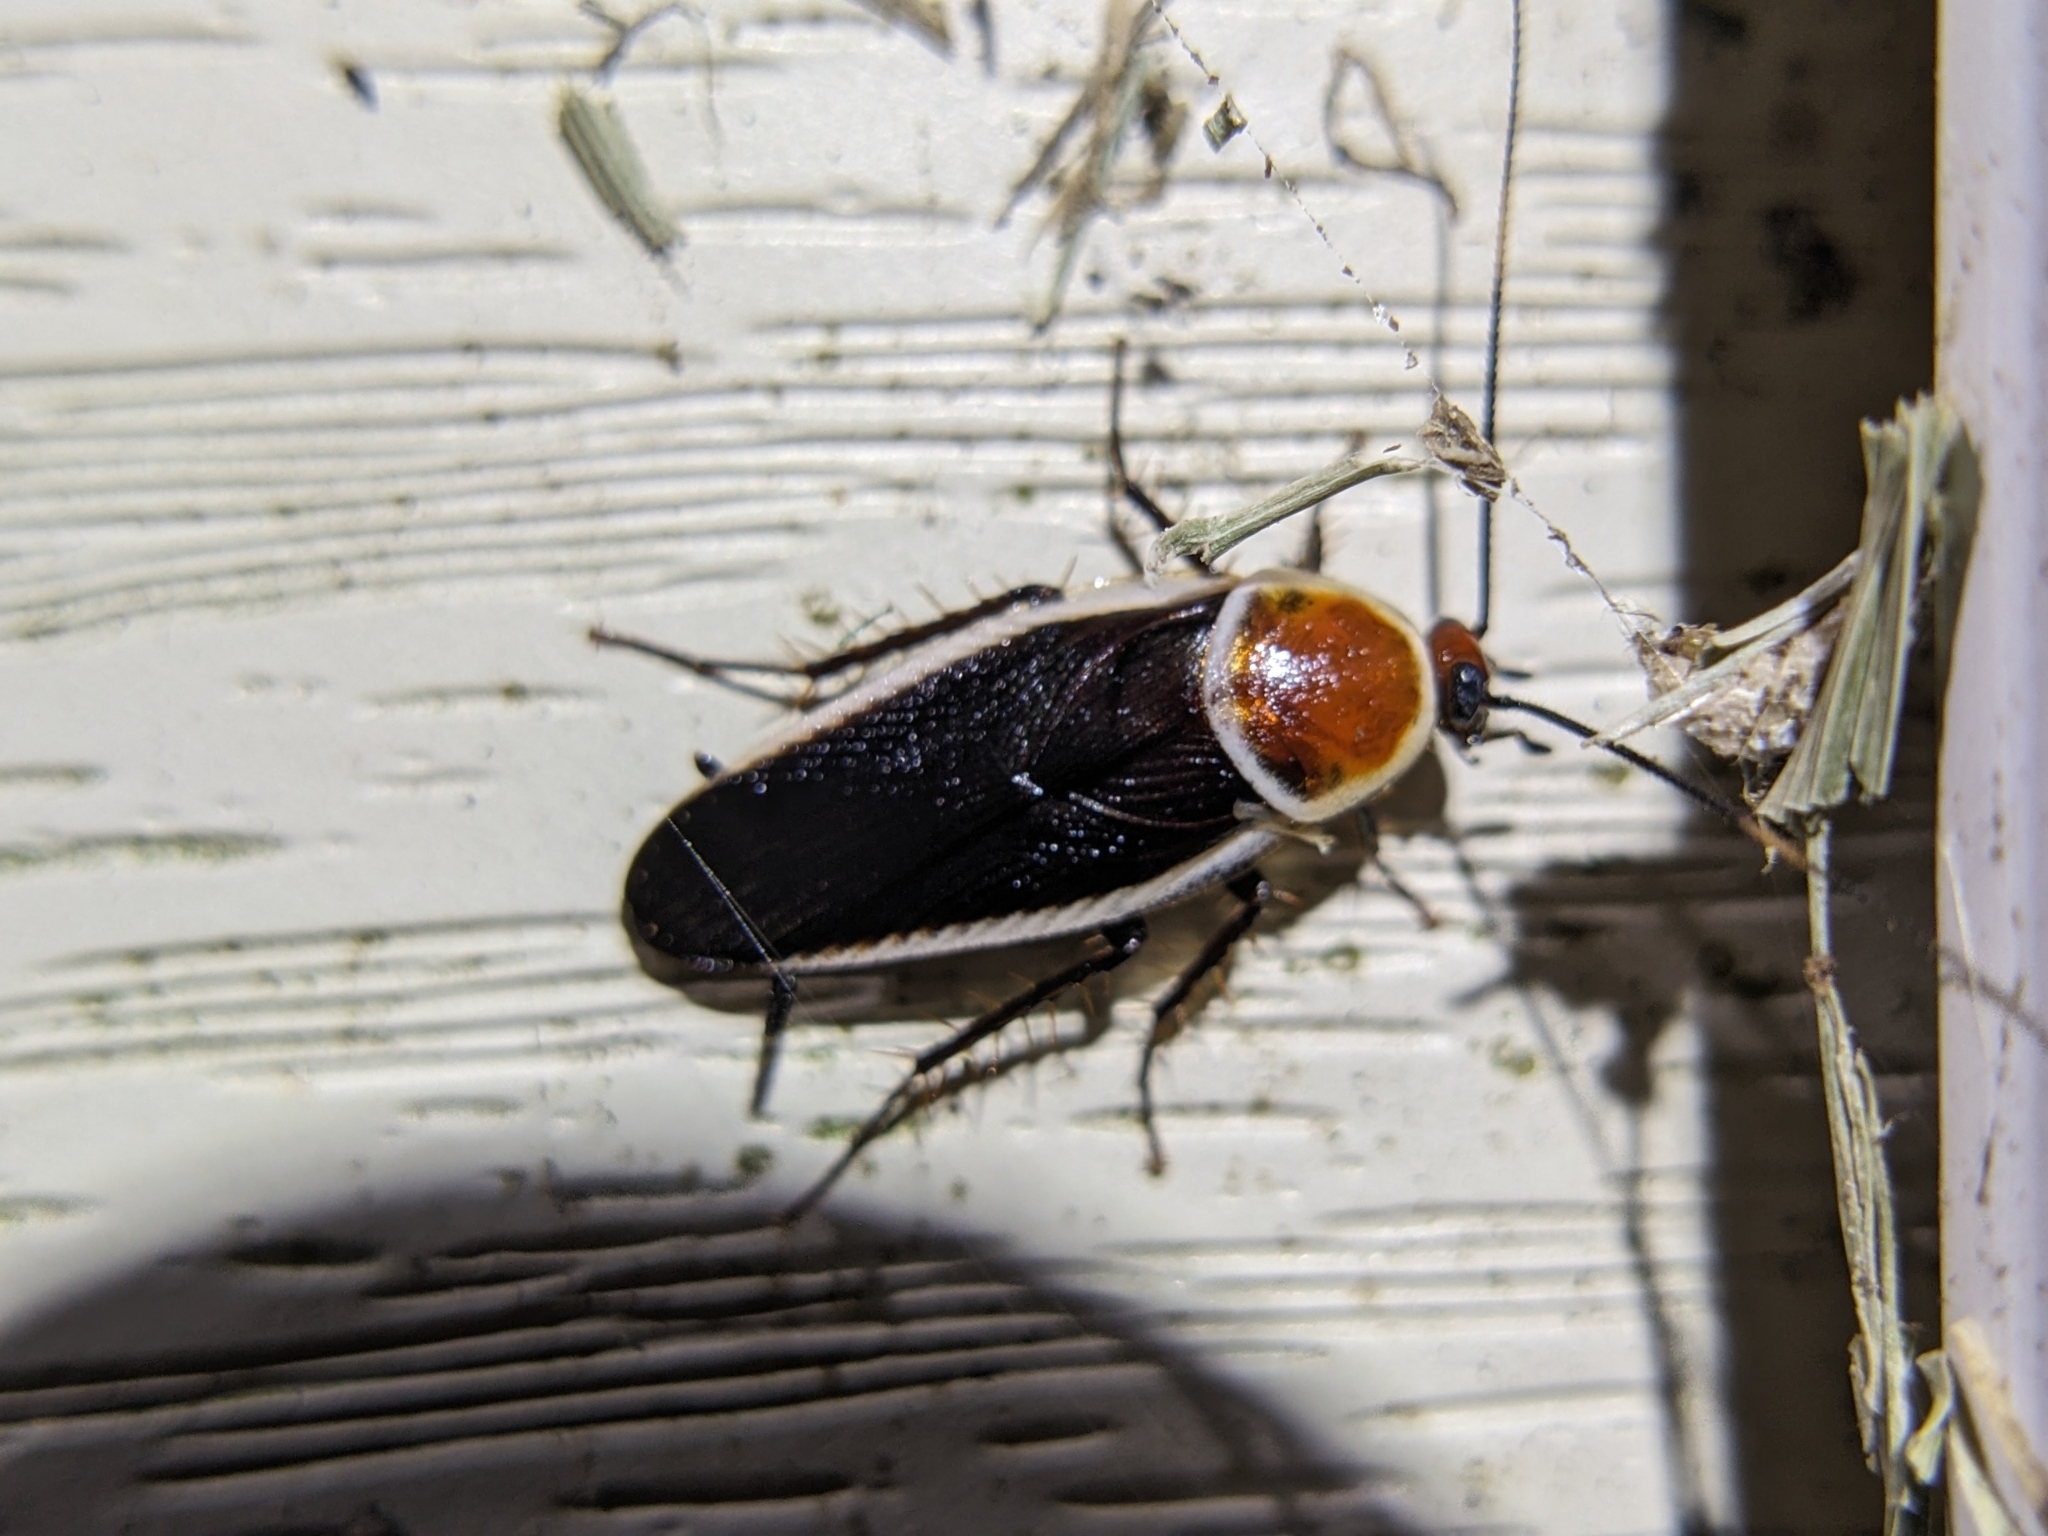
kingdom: Animalia
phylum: Arthropoda
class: Insecta
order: Blattodea
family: Ectobiidae
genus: Pseudomops
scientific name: Pseudomops septentrionalis
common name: Pale-bordered field cockroach
